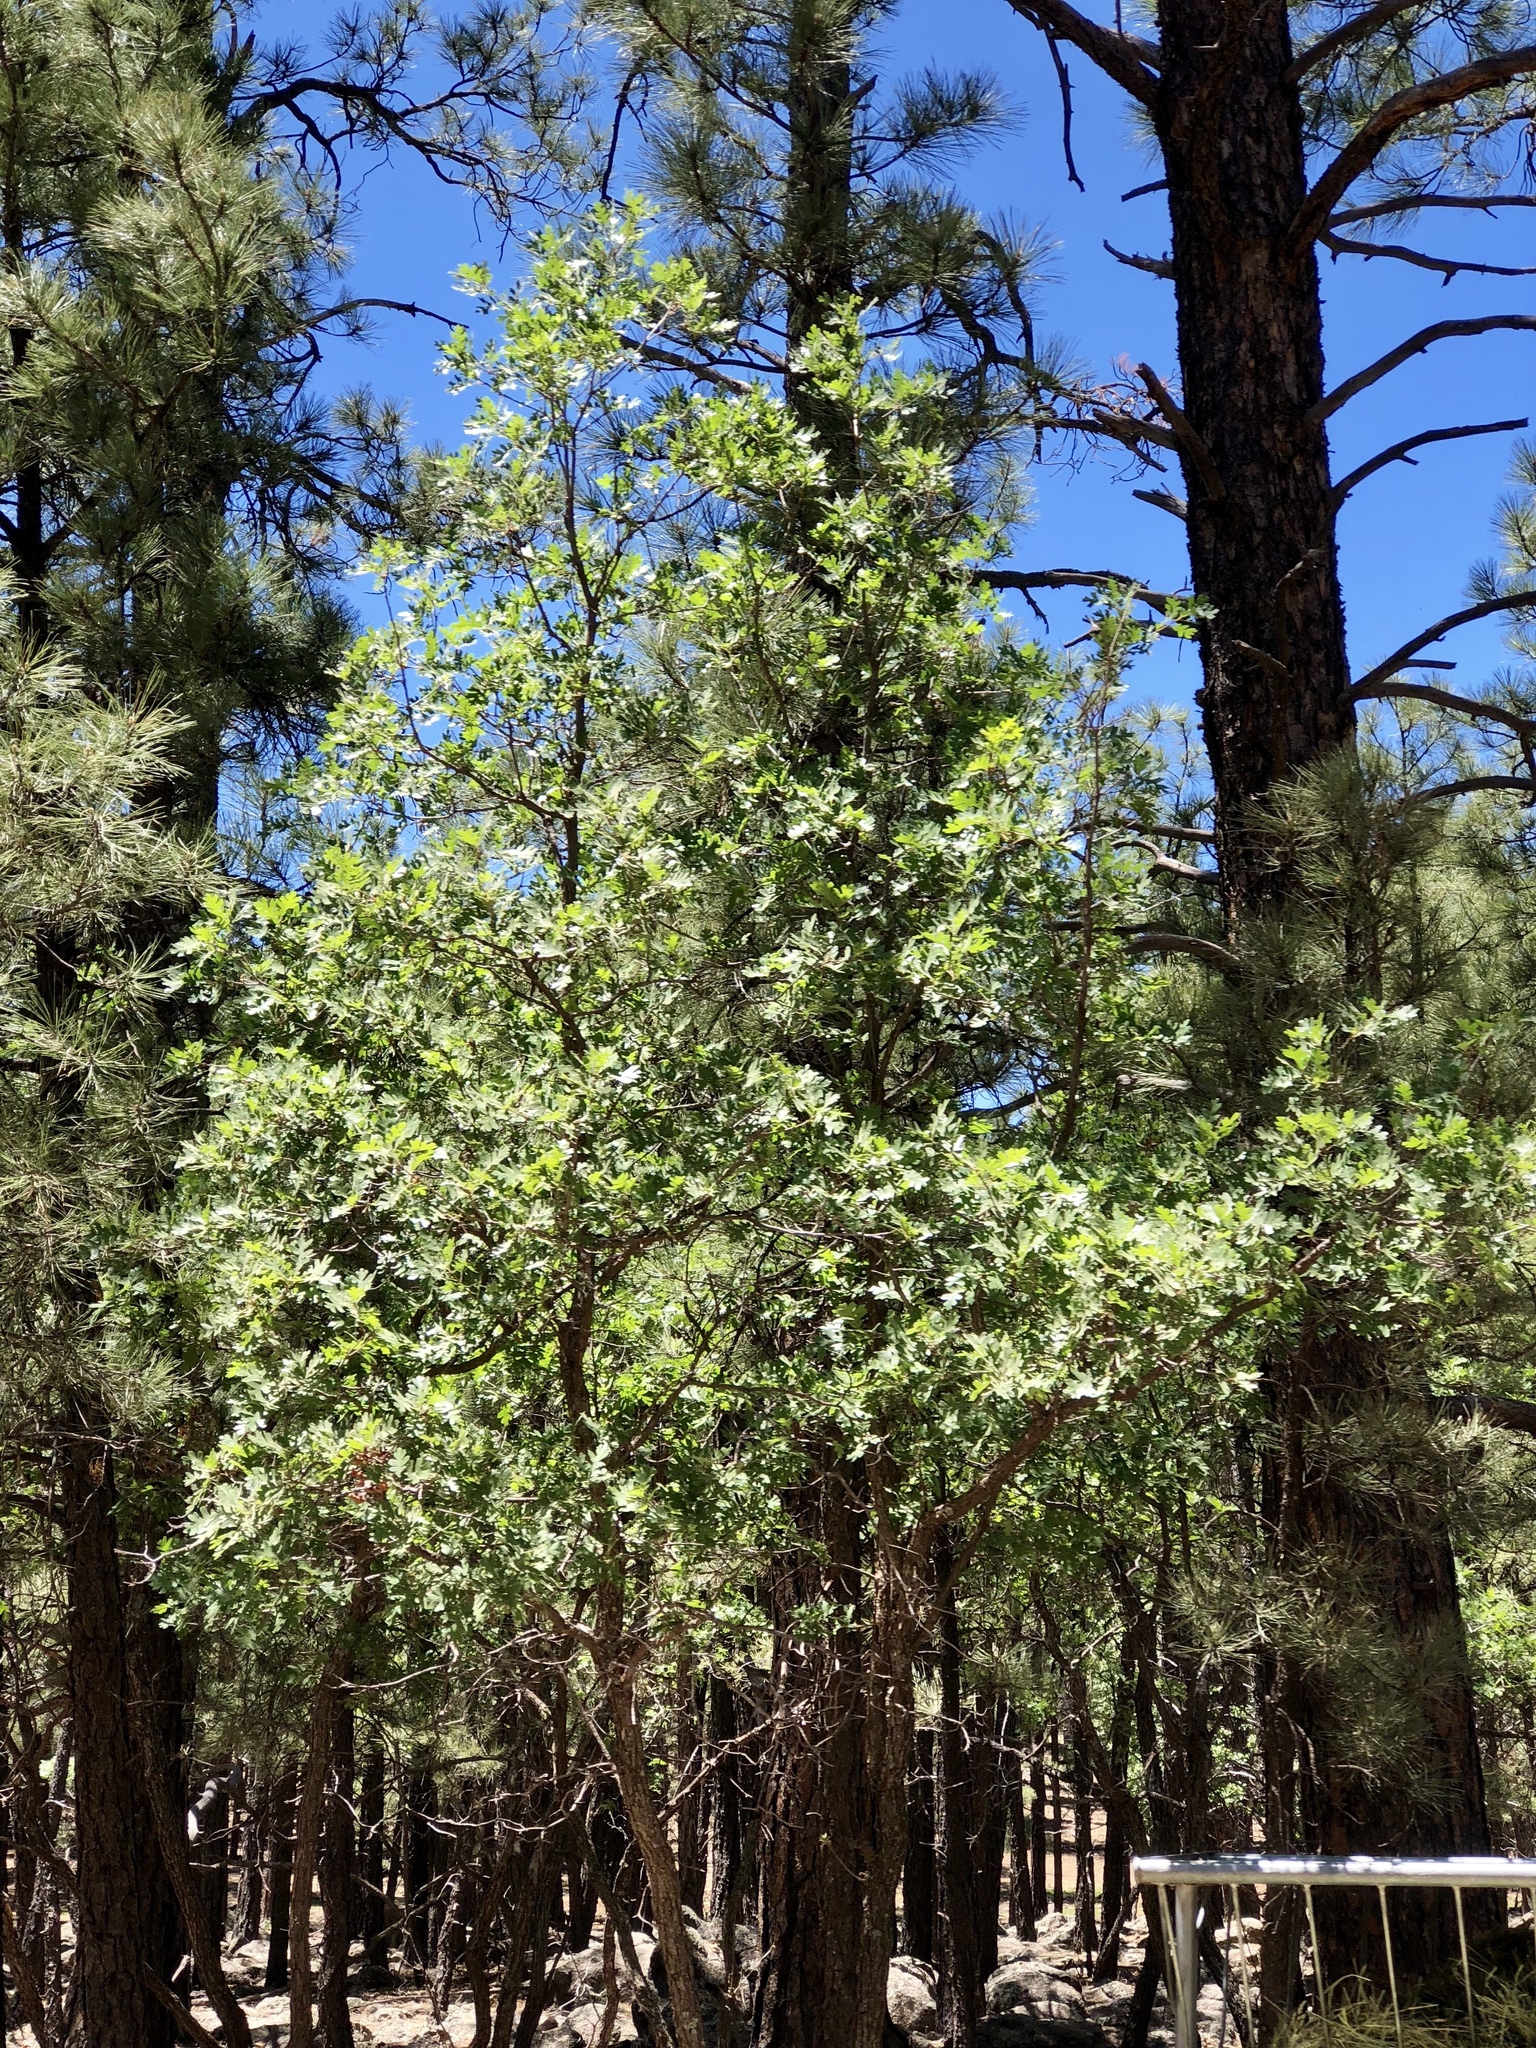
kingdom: Plantae
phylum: Tracheophyta
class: Magnoliopsida
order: Fagales
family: Fagaceae
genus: Quercus
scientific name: Quercus gambelii
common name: Gambel oak
